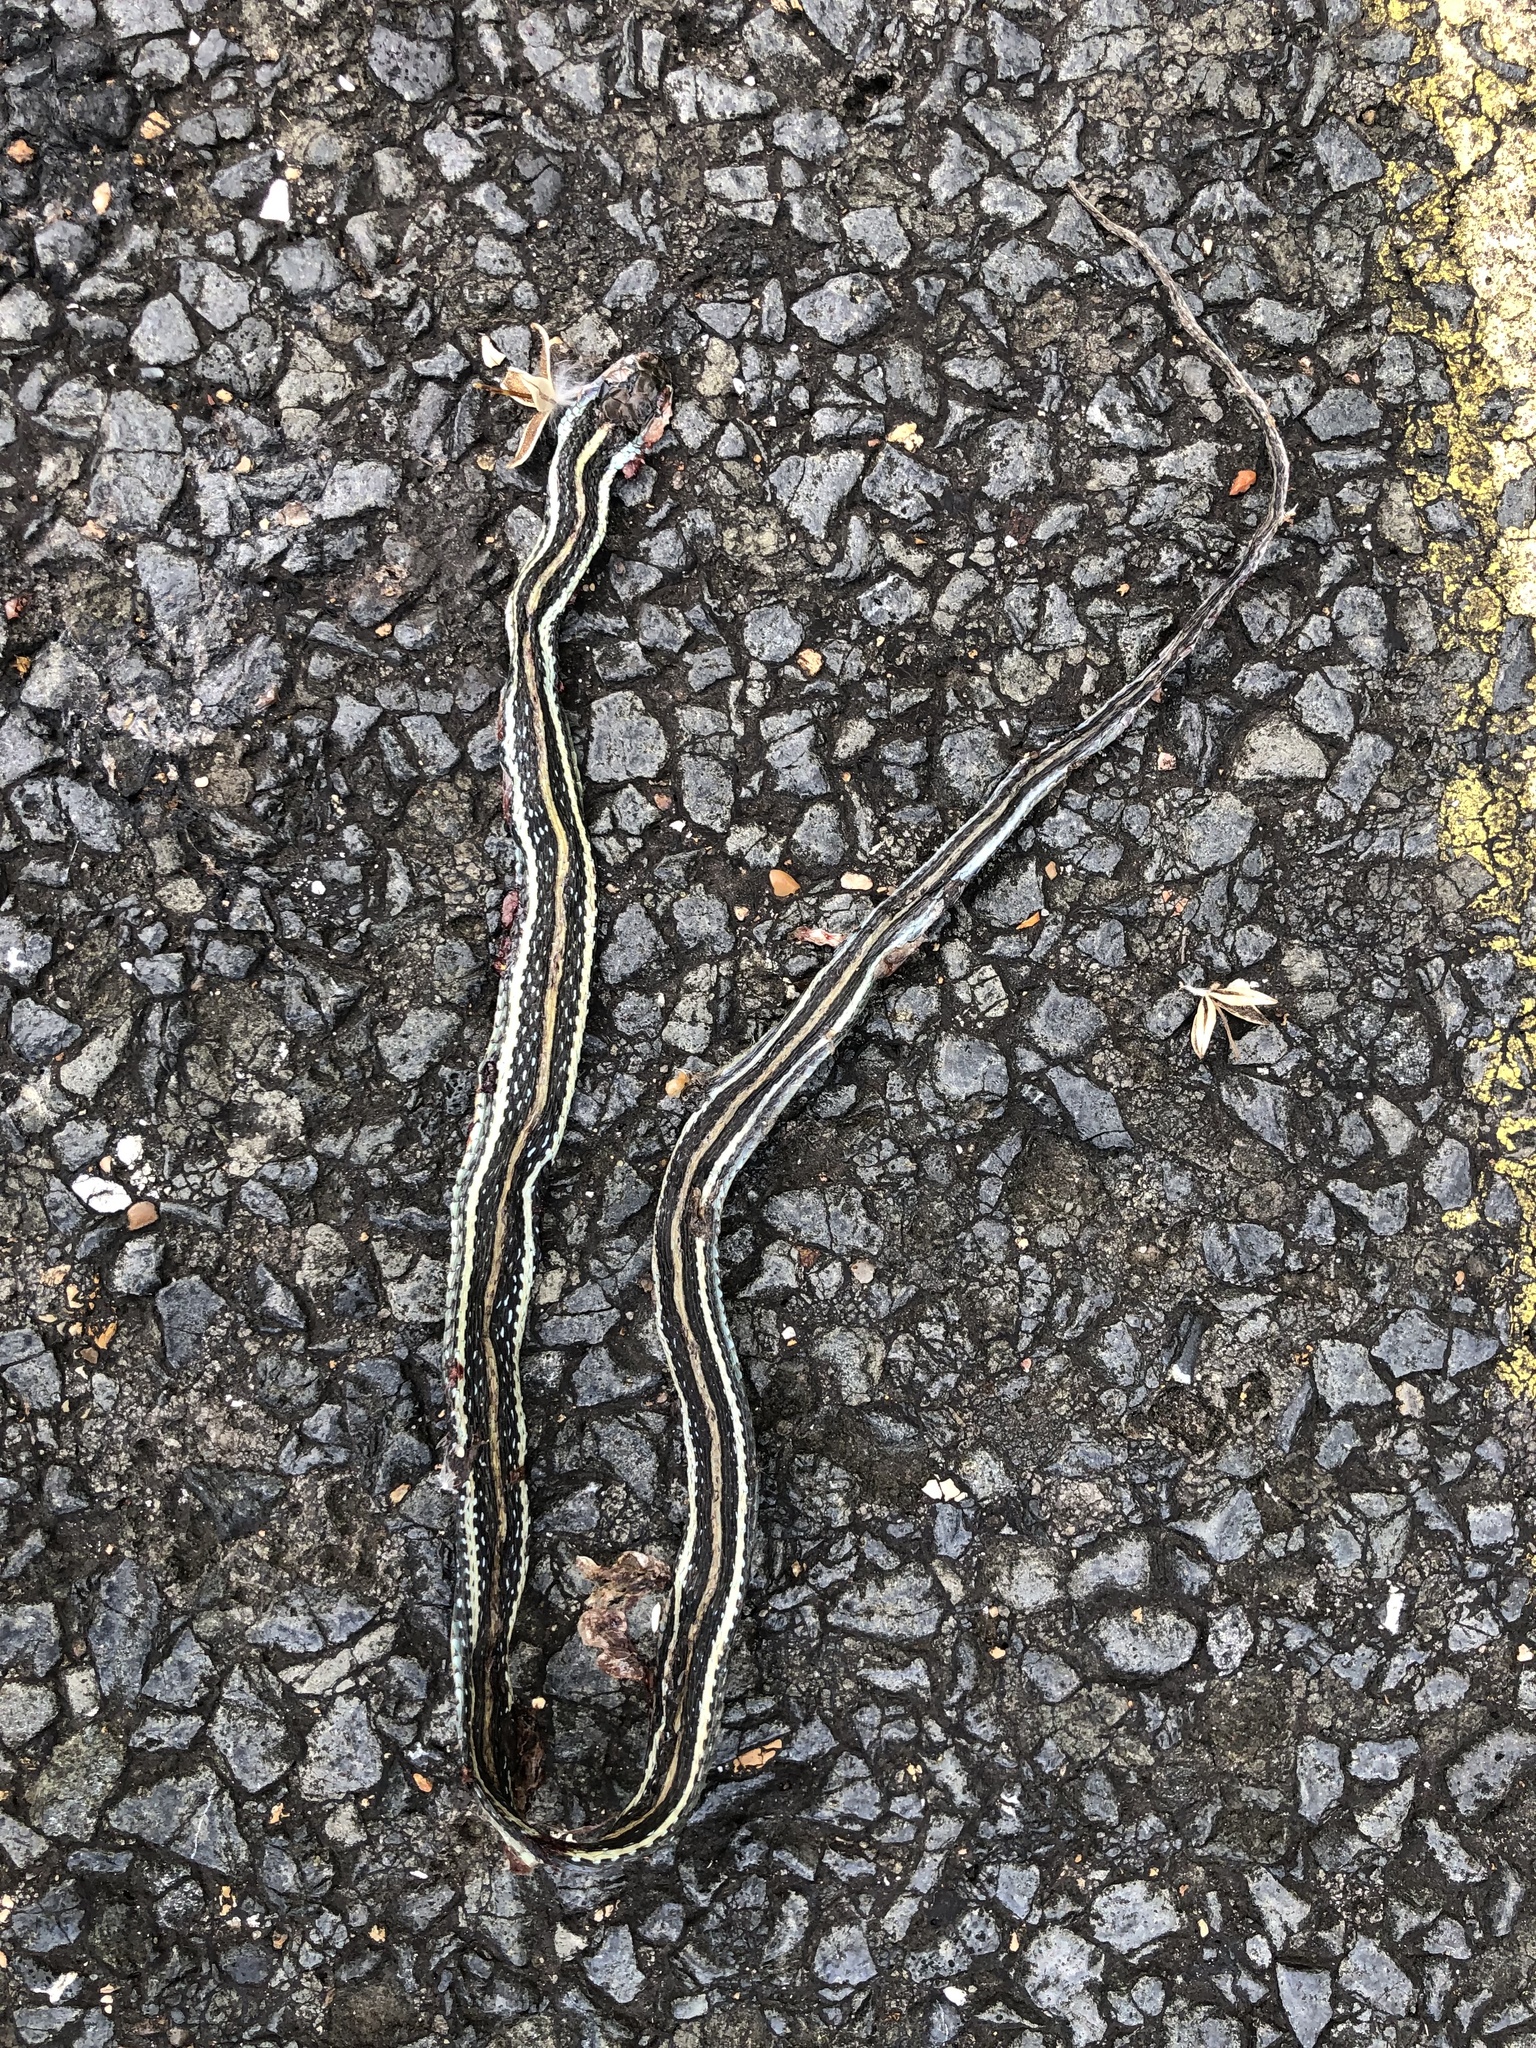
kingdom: Animalia
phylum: Chordata
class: Squamata
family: Colubridae
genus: Thamnophis
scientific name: Thamnophis proximus
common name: Western ribbon snake
